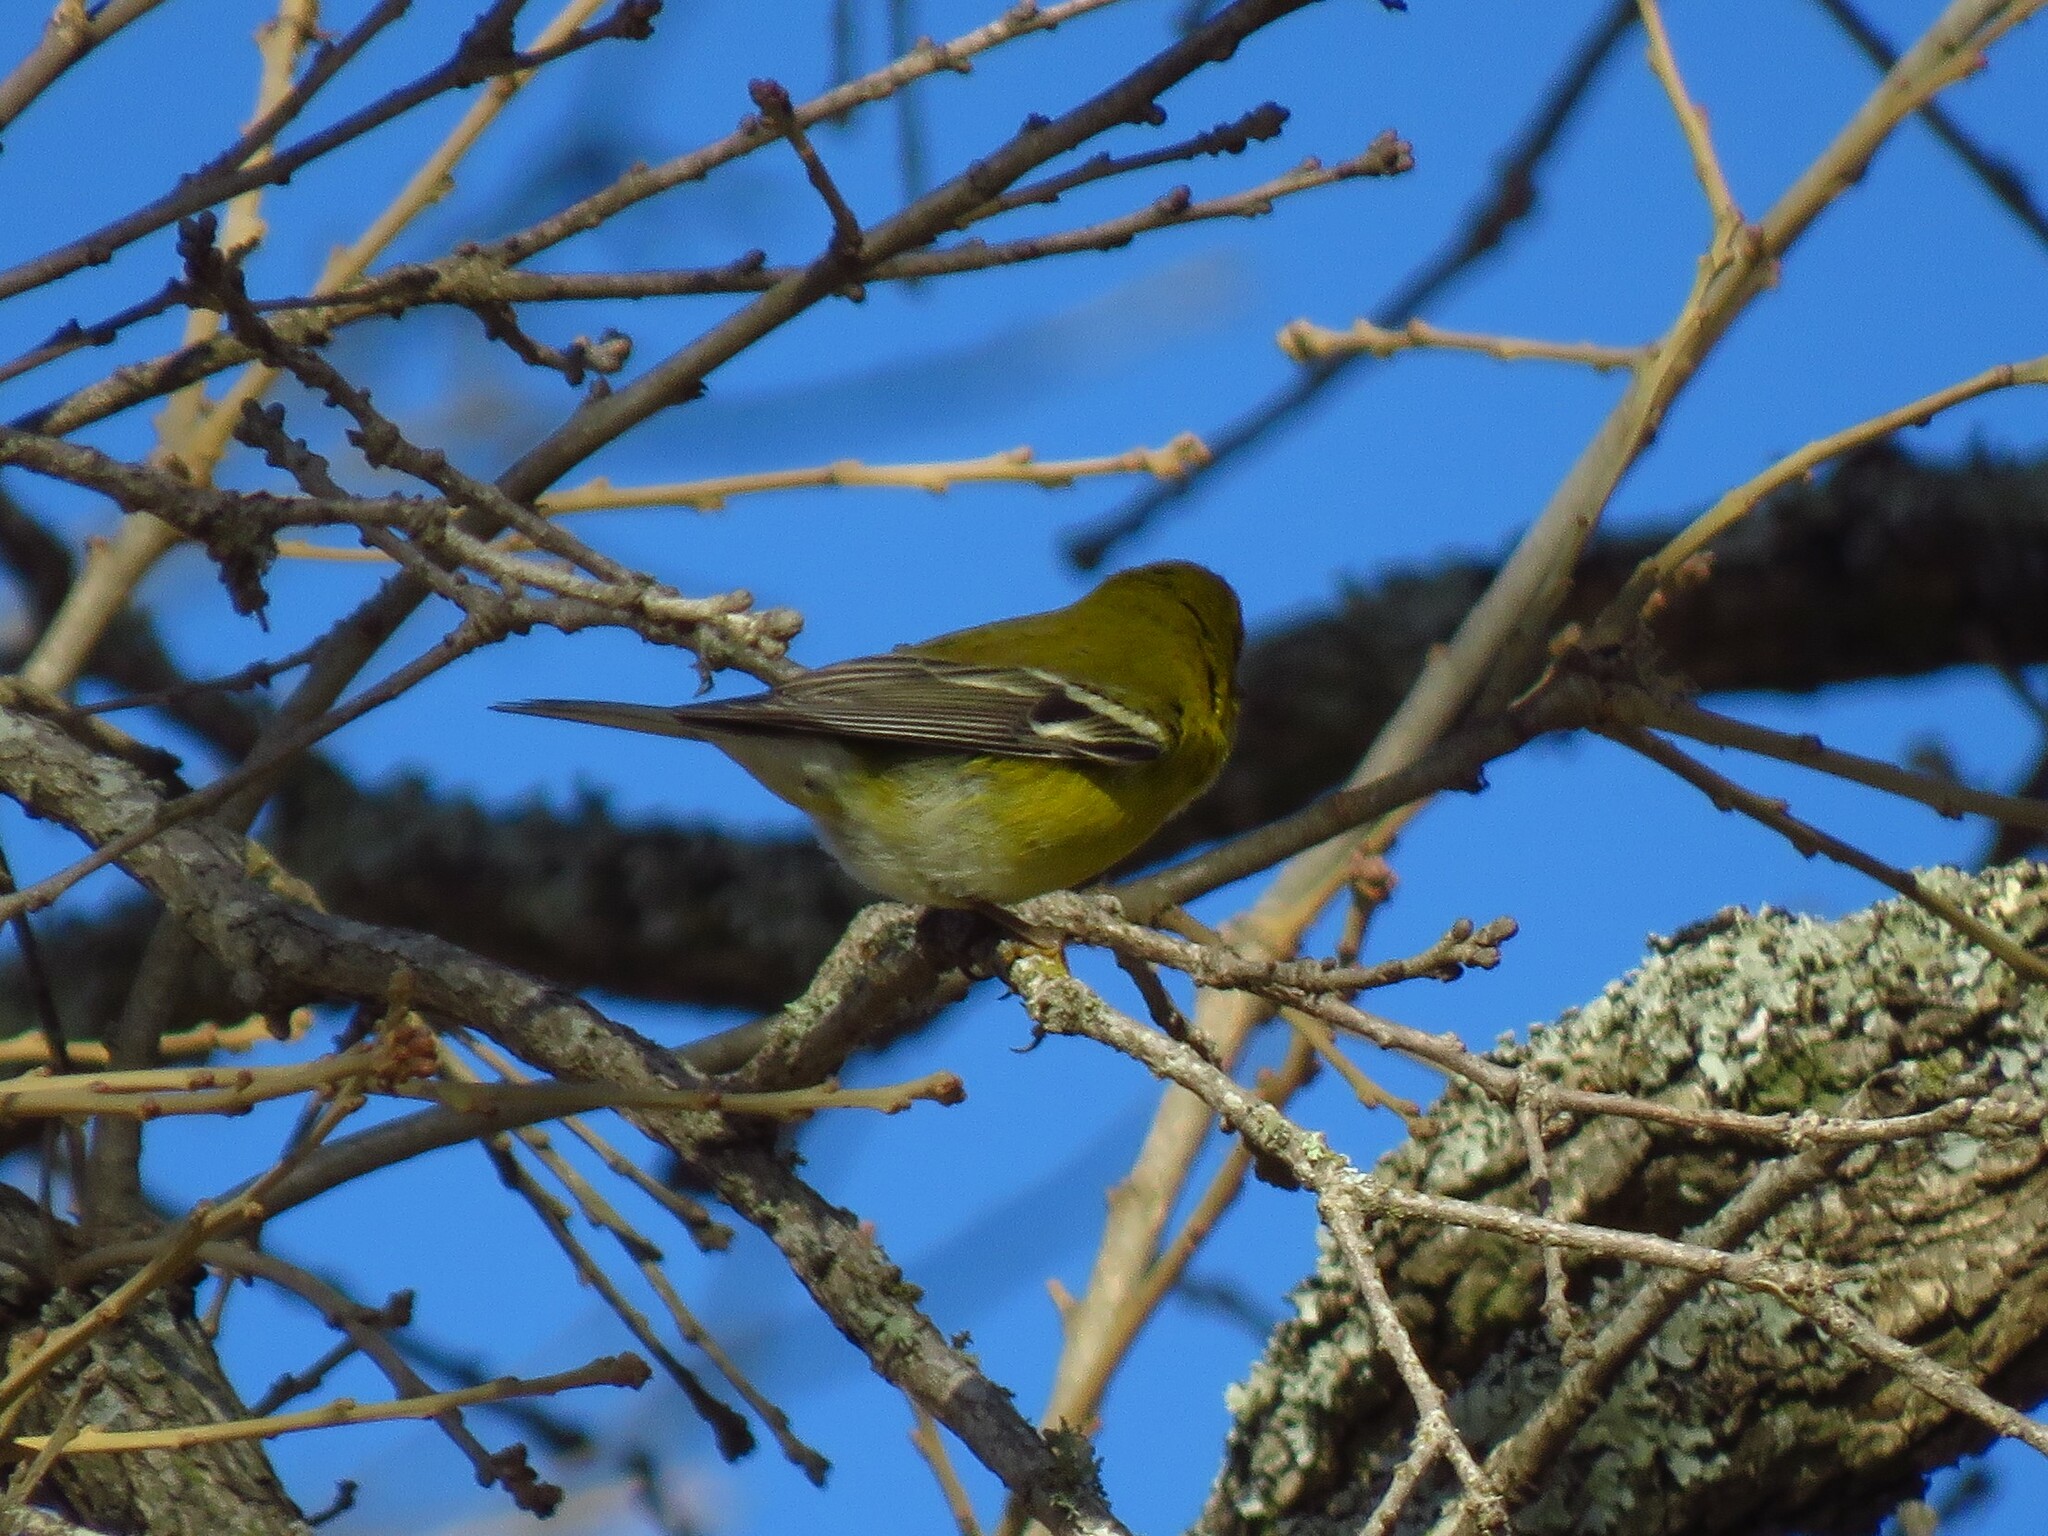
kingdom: Animalia
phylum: Chordata
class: Aves
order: Passeriformes
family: Parulidae
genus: Setophaga
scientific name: Setophaga pinus
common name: Pine warbler
